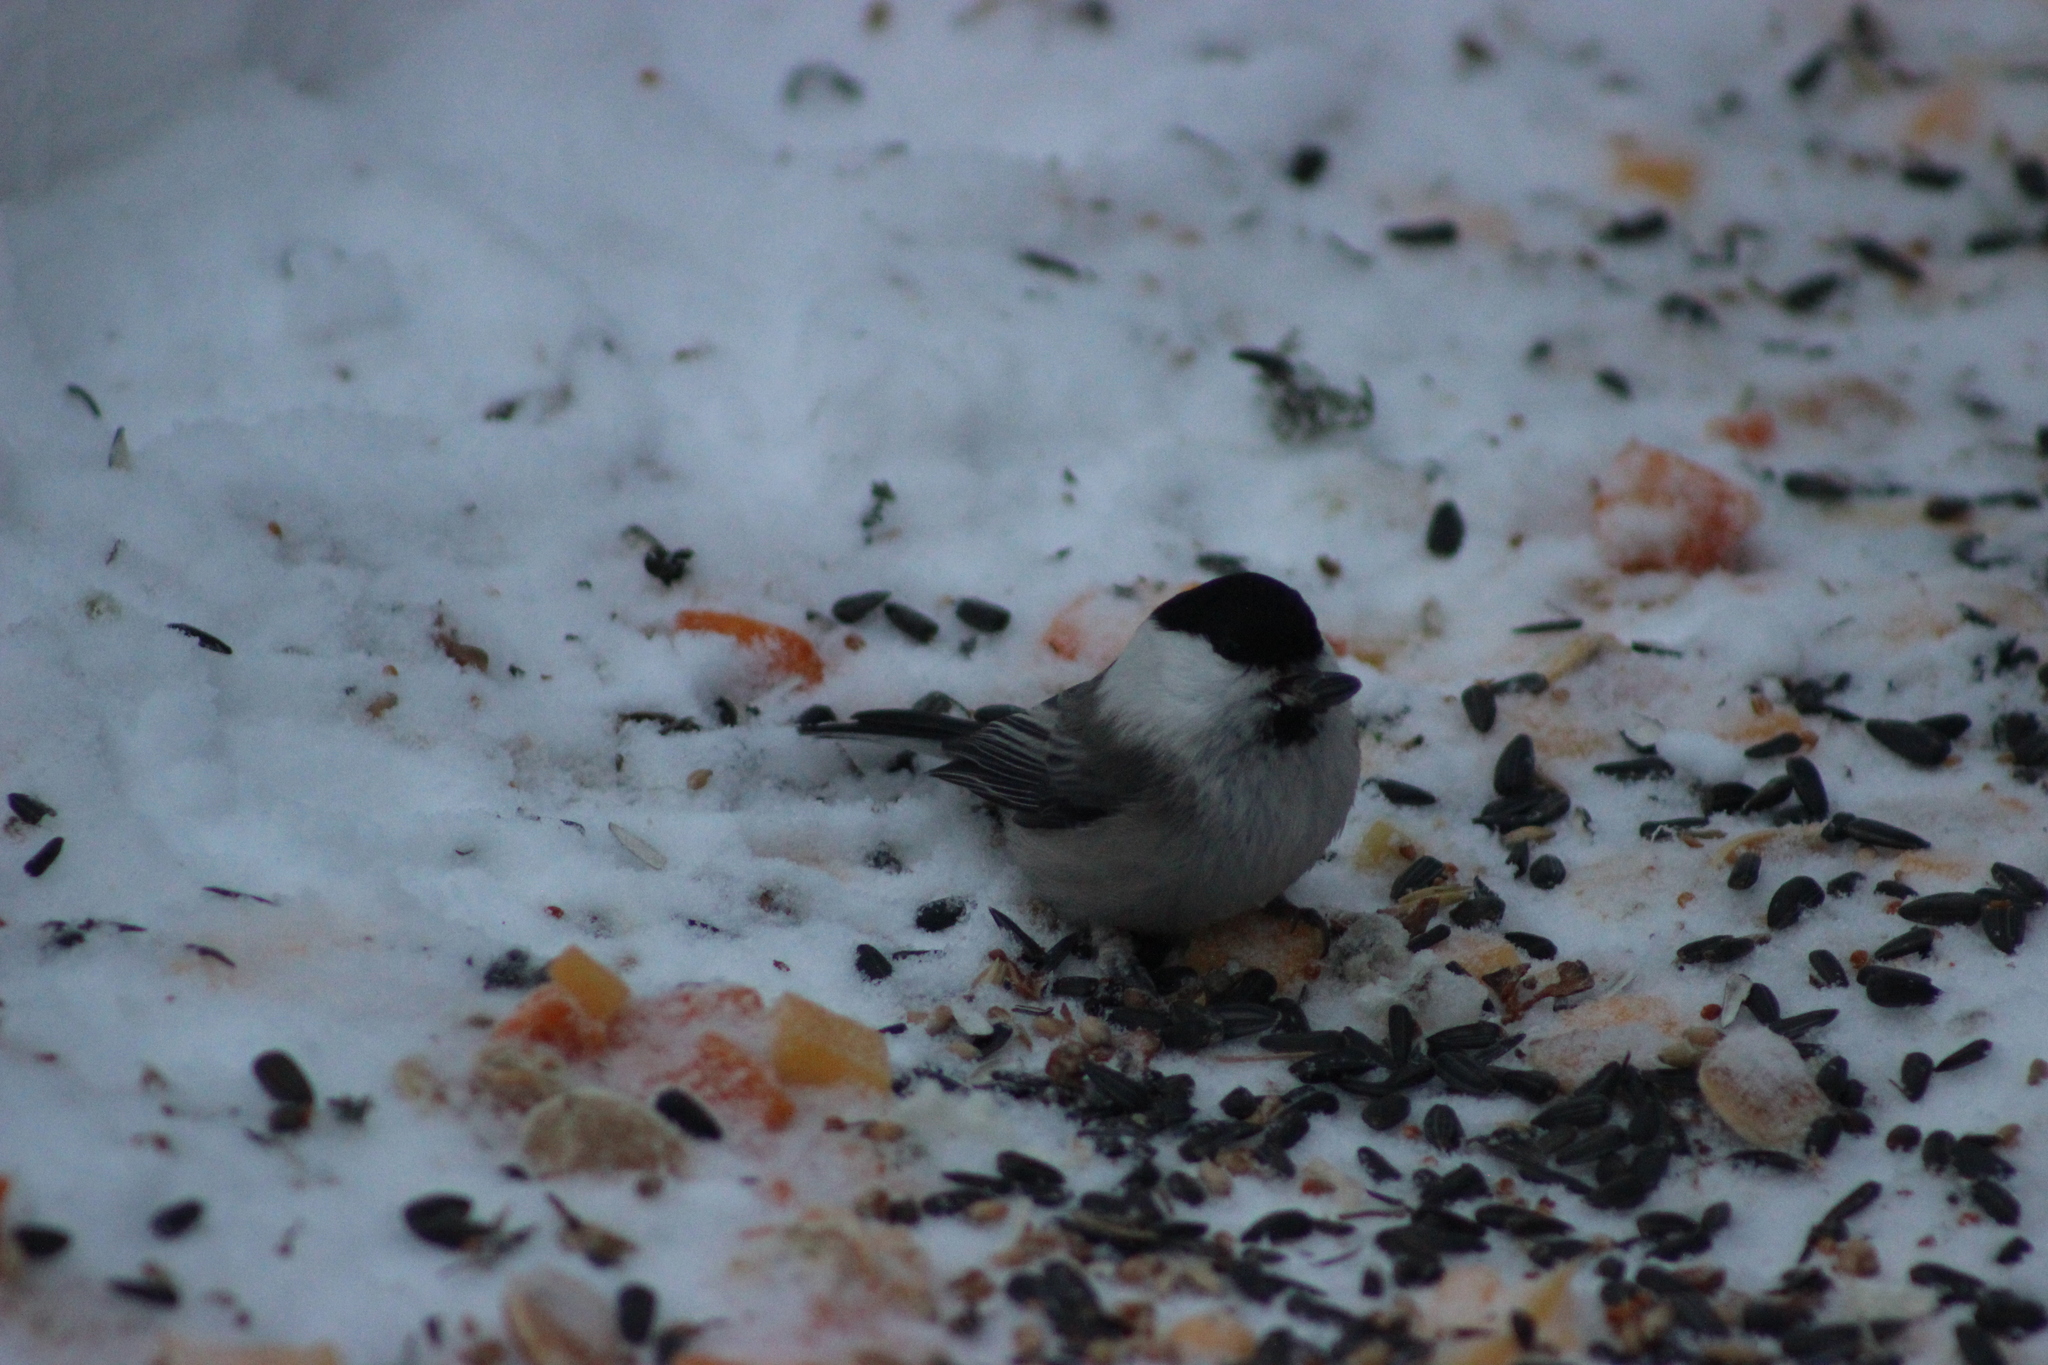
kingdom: Animalia
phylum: Chordata
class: Aves
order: Passeriformes
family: Paridae
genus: Poecile
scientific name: Poecile montanus
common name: Willow tit
